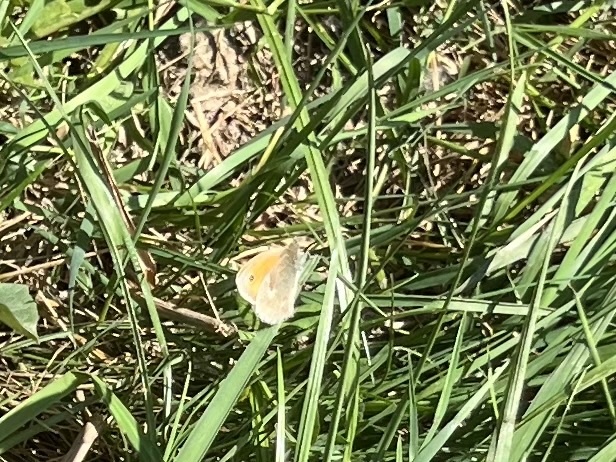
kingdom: Animalia
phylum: Arthropoda
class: Insecta
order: Lepidoptera
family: Nymphalidae
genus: Coenonympha
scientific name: Coenonympha pamphilus
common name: Small heath
